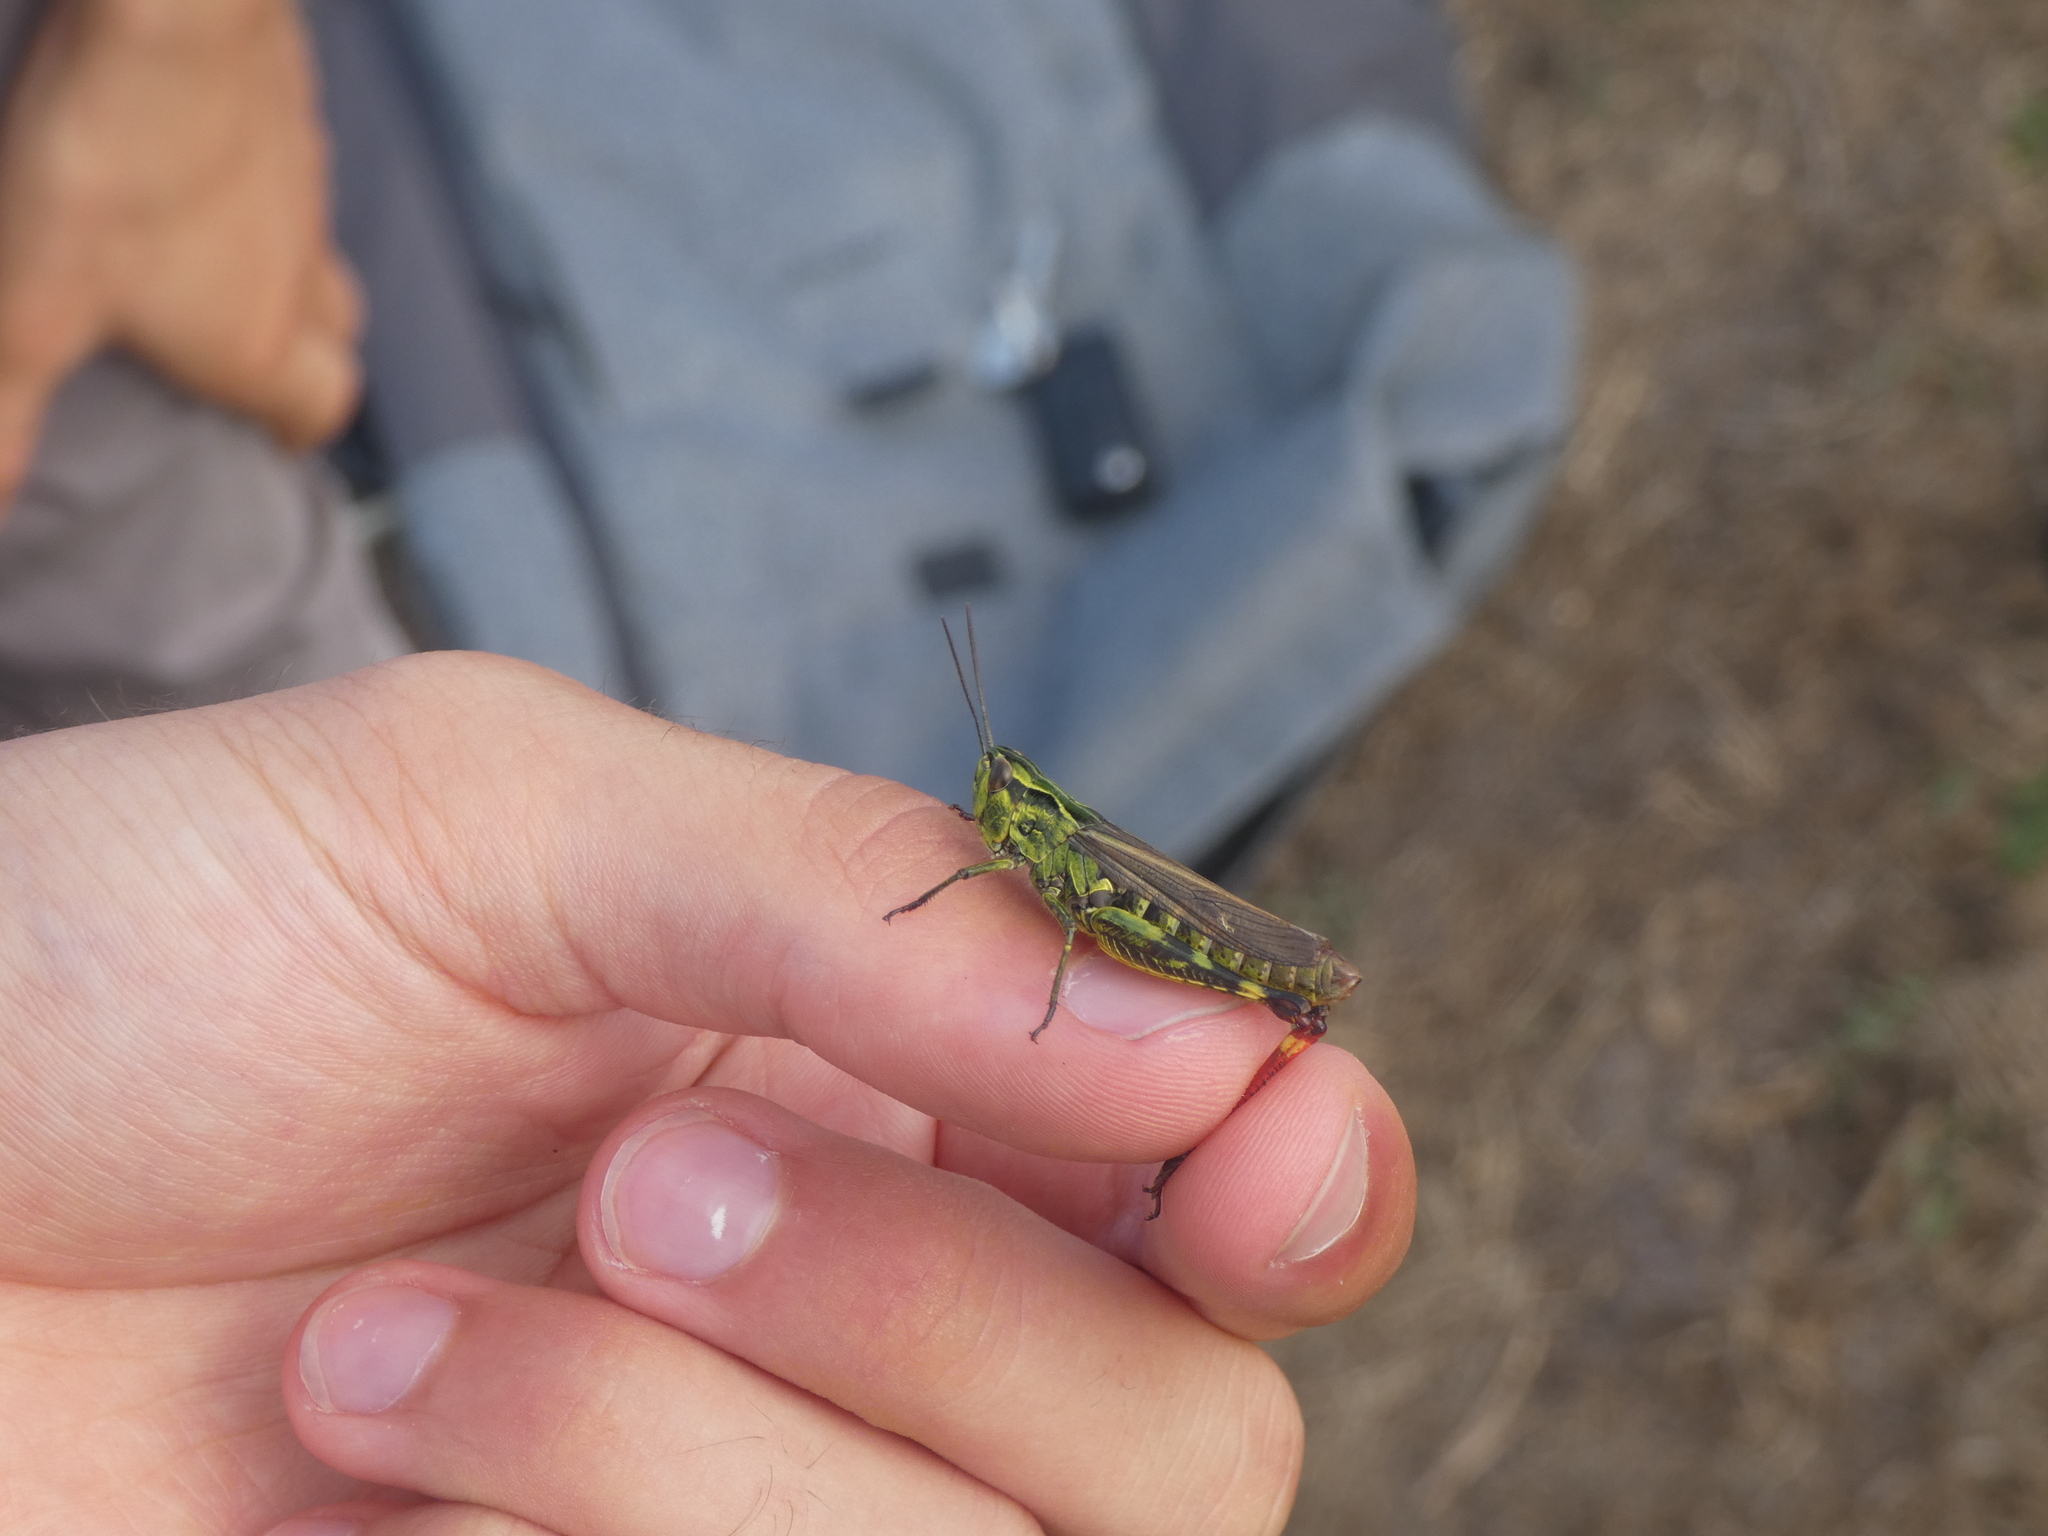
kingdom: Animalia
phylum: Arthropoda
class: Insecta
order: Orthoptera
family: Acrididae
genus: Chorthippus
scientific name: Chorthippus binotatus
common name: Two-marked grasshopper
